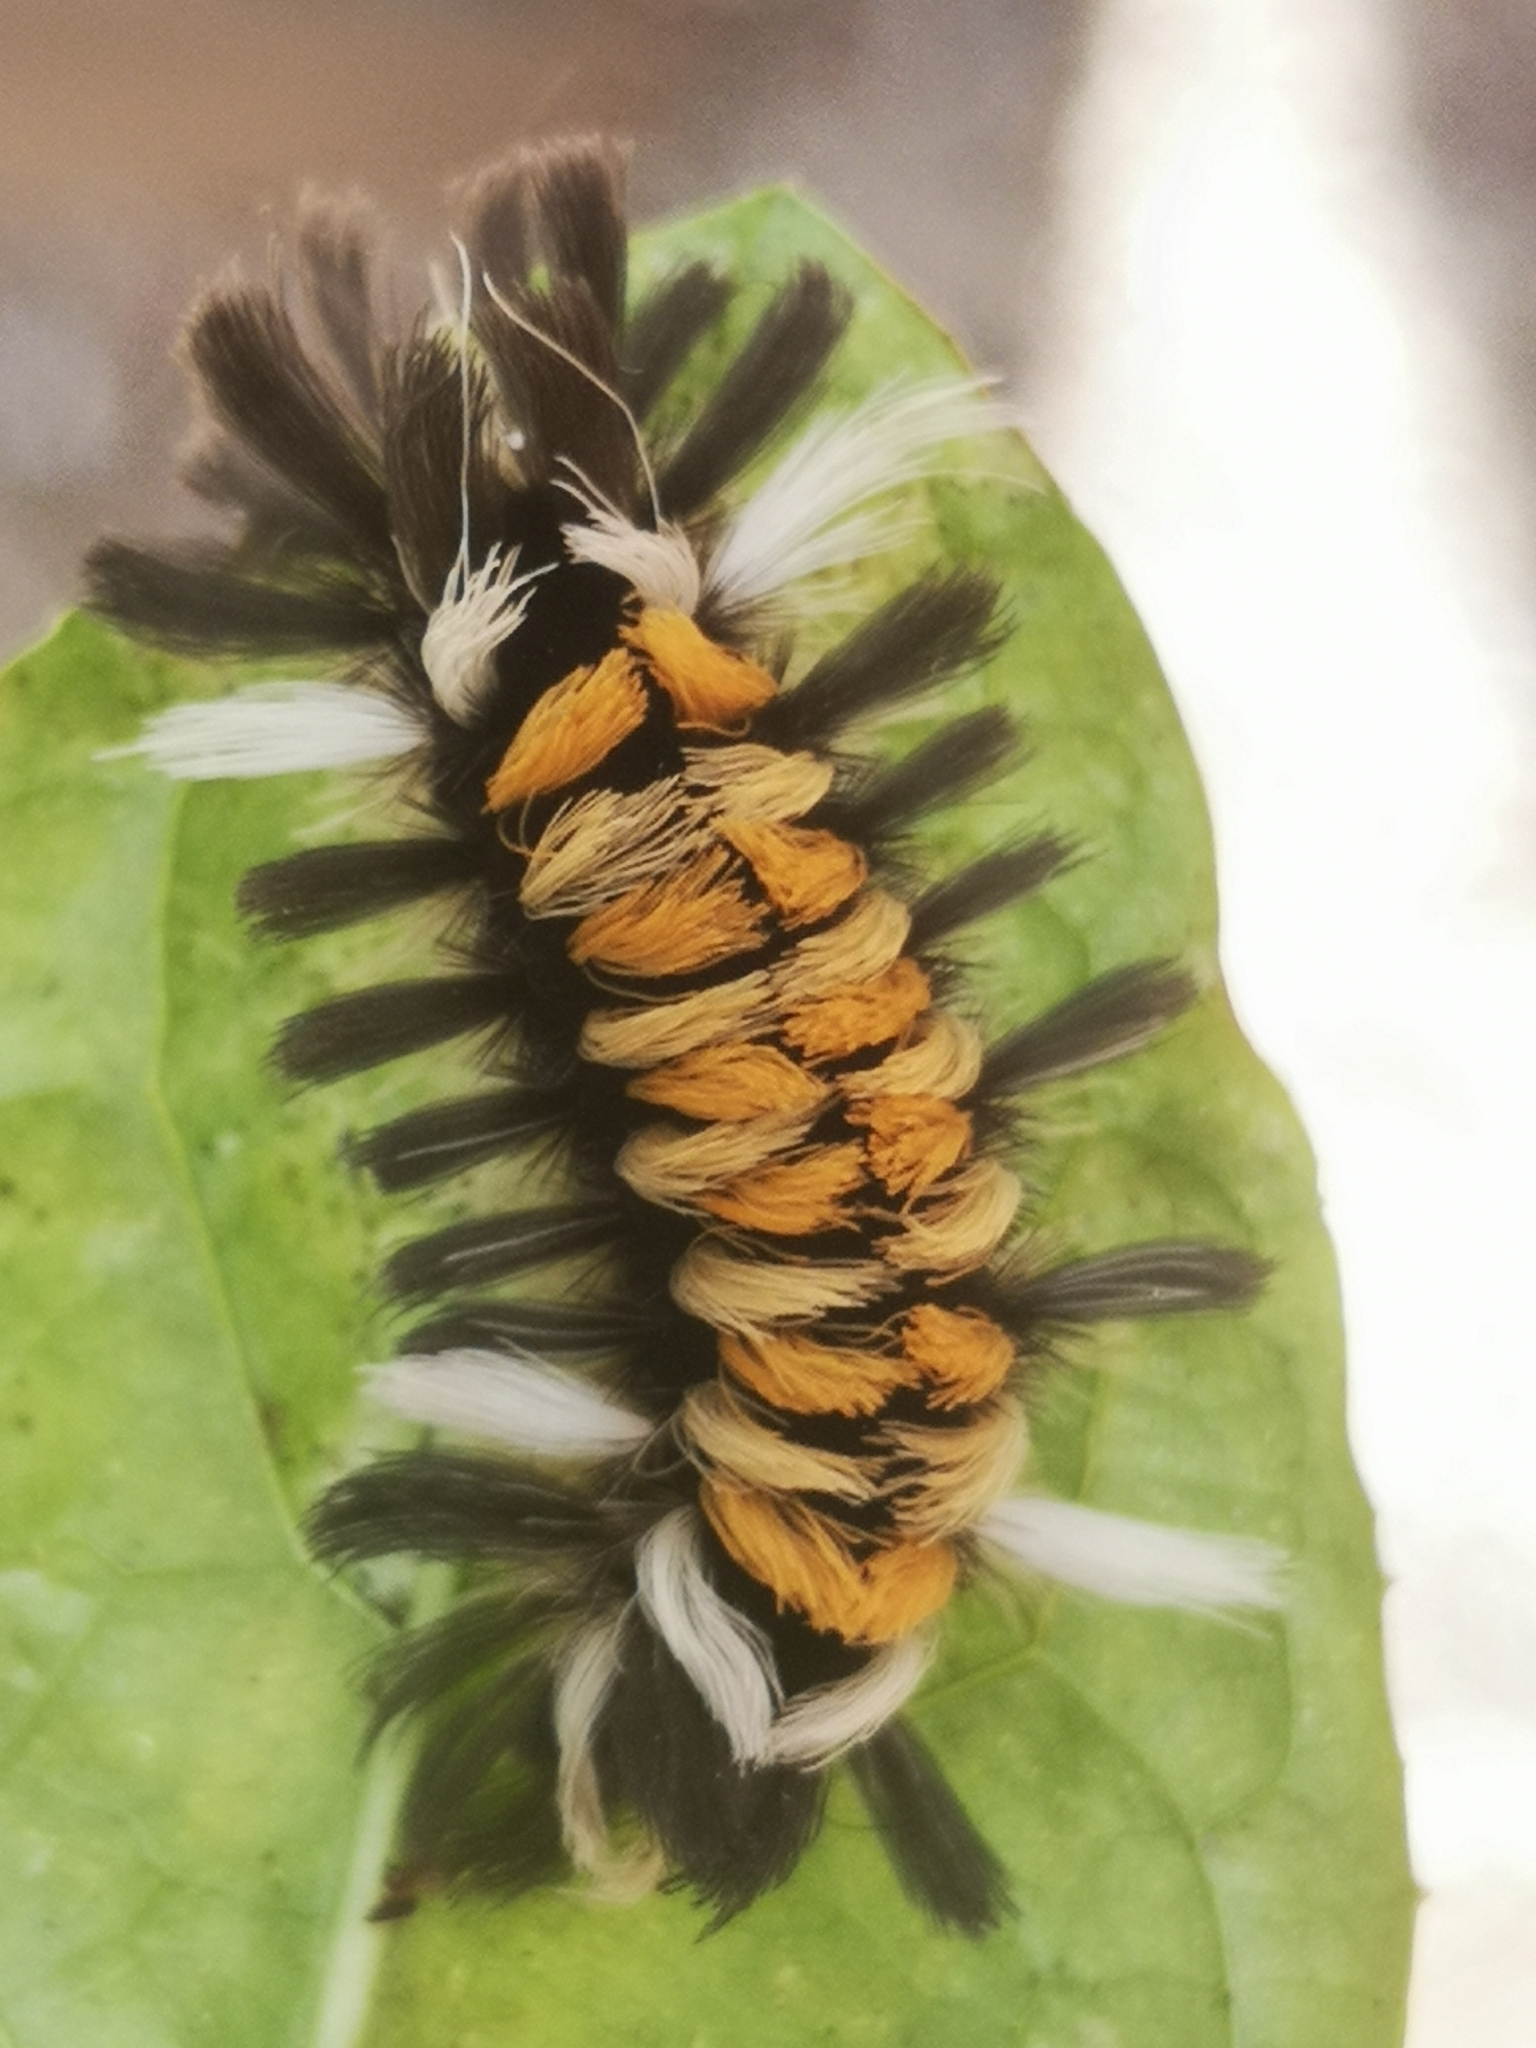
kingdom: Animalia
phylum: Arthropoda
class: Insecta
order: Lepidoptera
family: Erebidae
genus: Euchaetes
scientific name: Euchaetes egle
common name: Milkweed tussock moth
